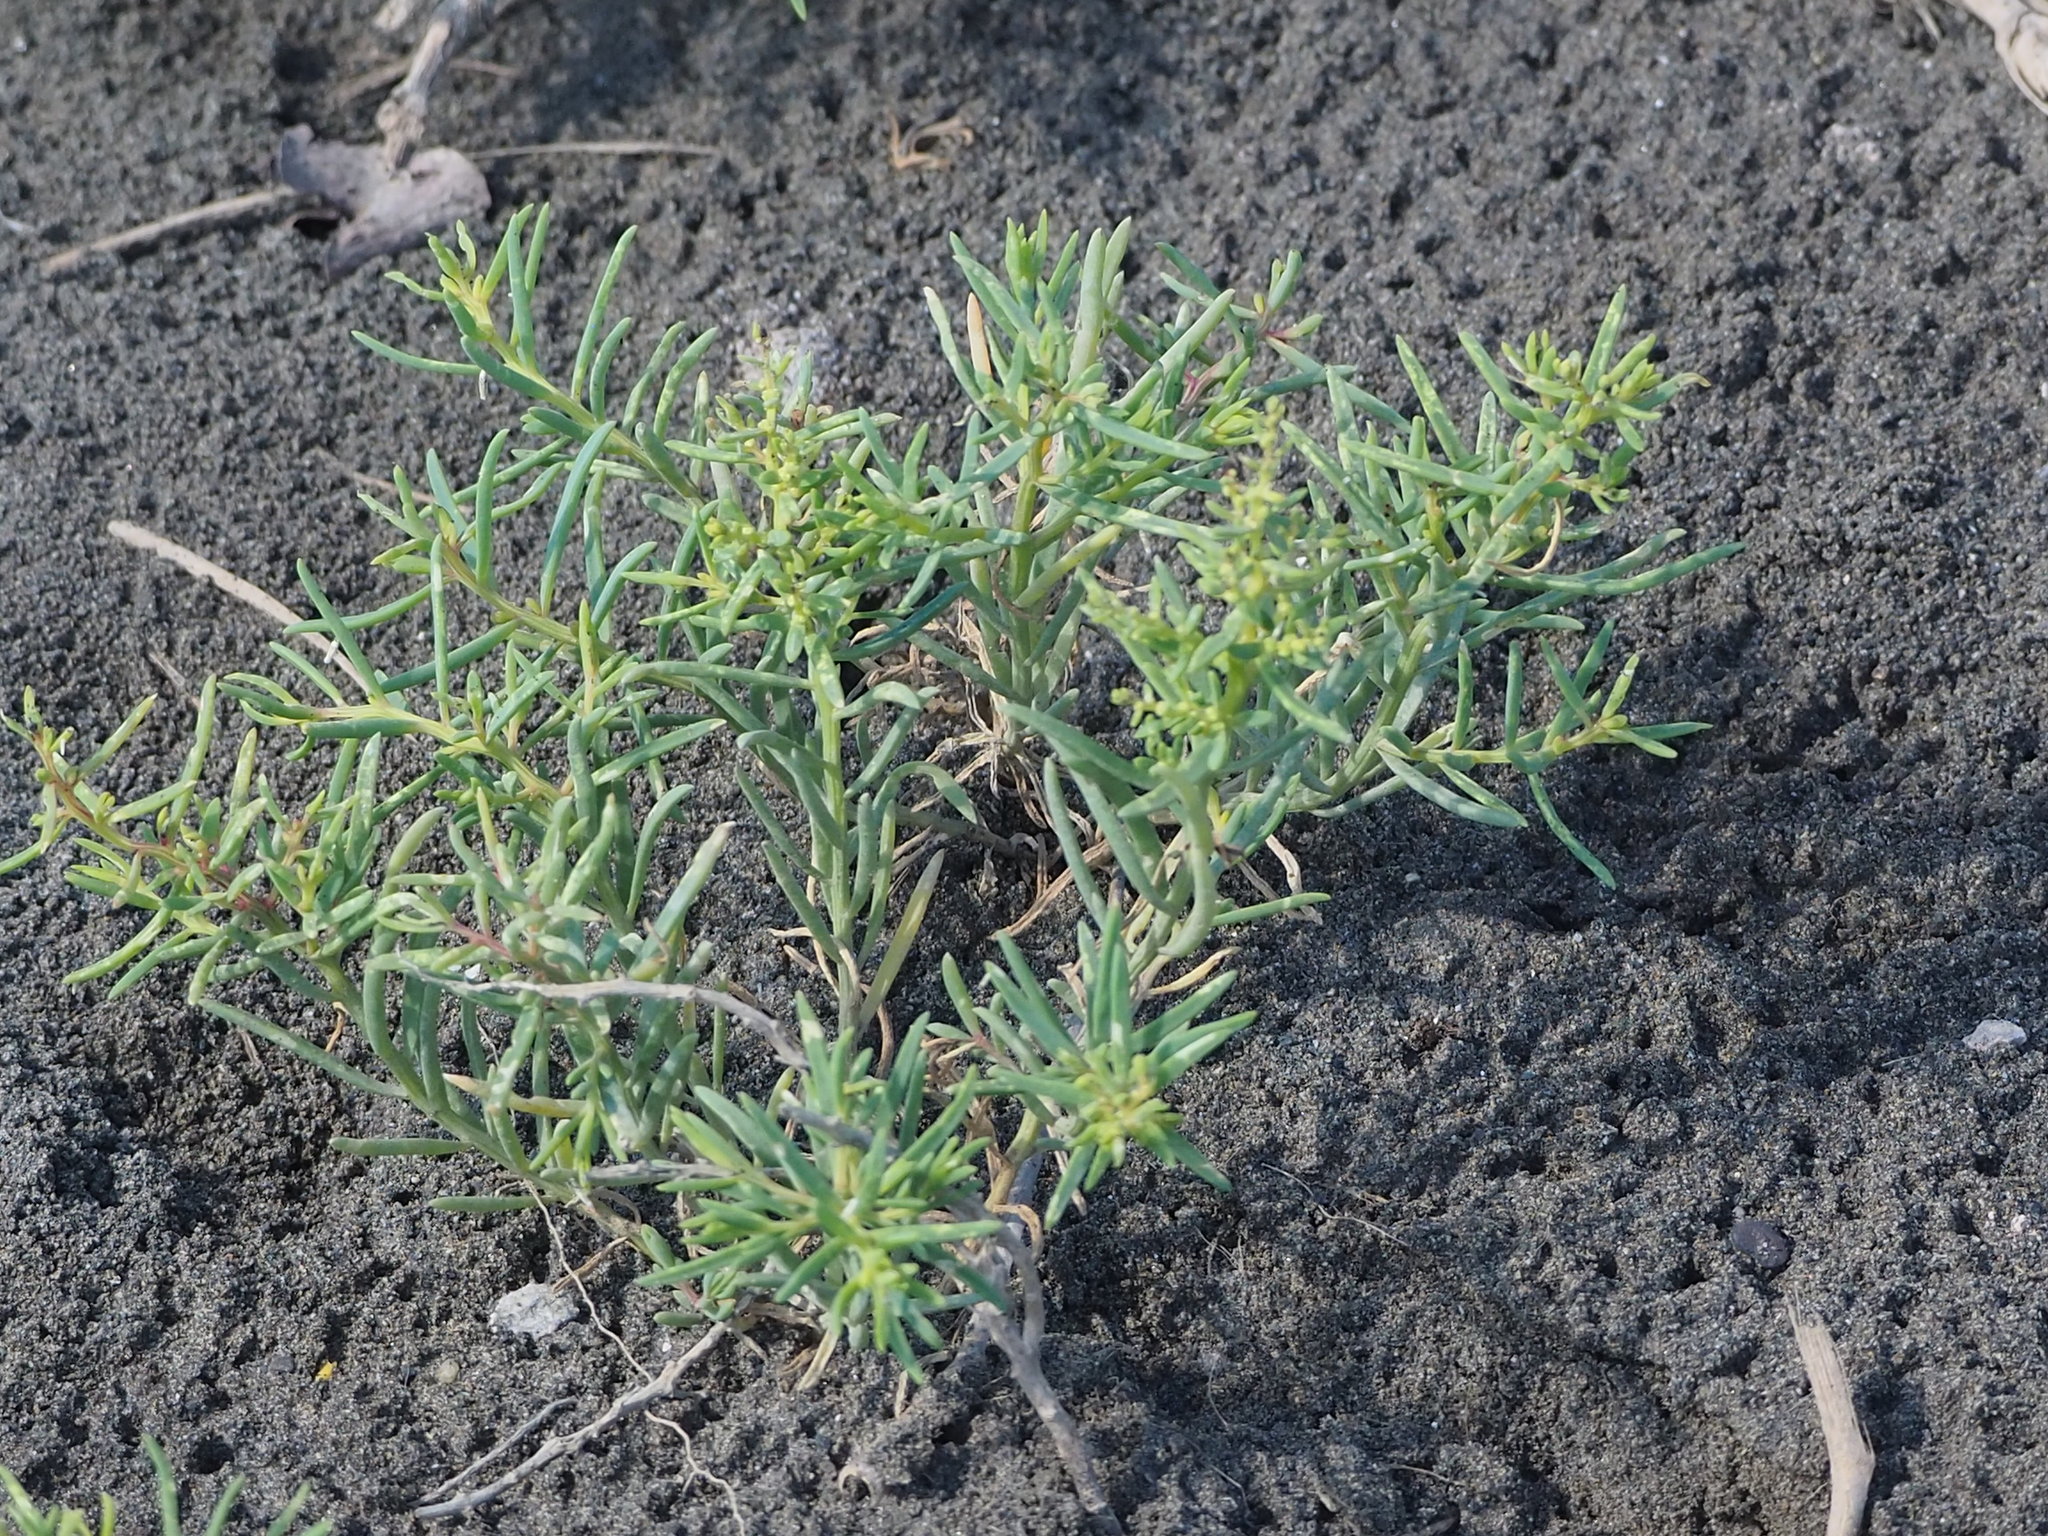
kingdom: Plantae
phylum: Tracheophyta
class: Magnoliopsida
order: Caryophyllales
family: Amaranthaceae
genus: Suaeda
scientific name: Suaeda maritima
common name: Annual sea-blite
